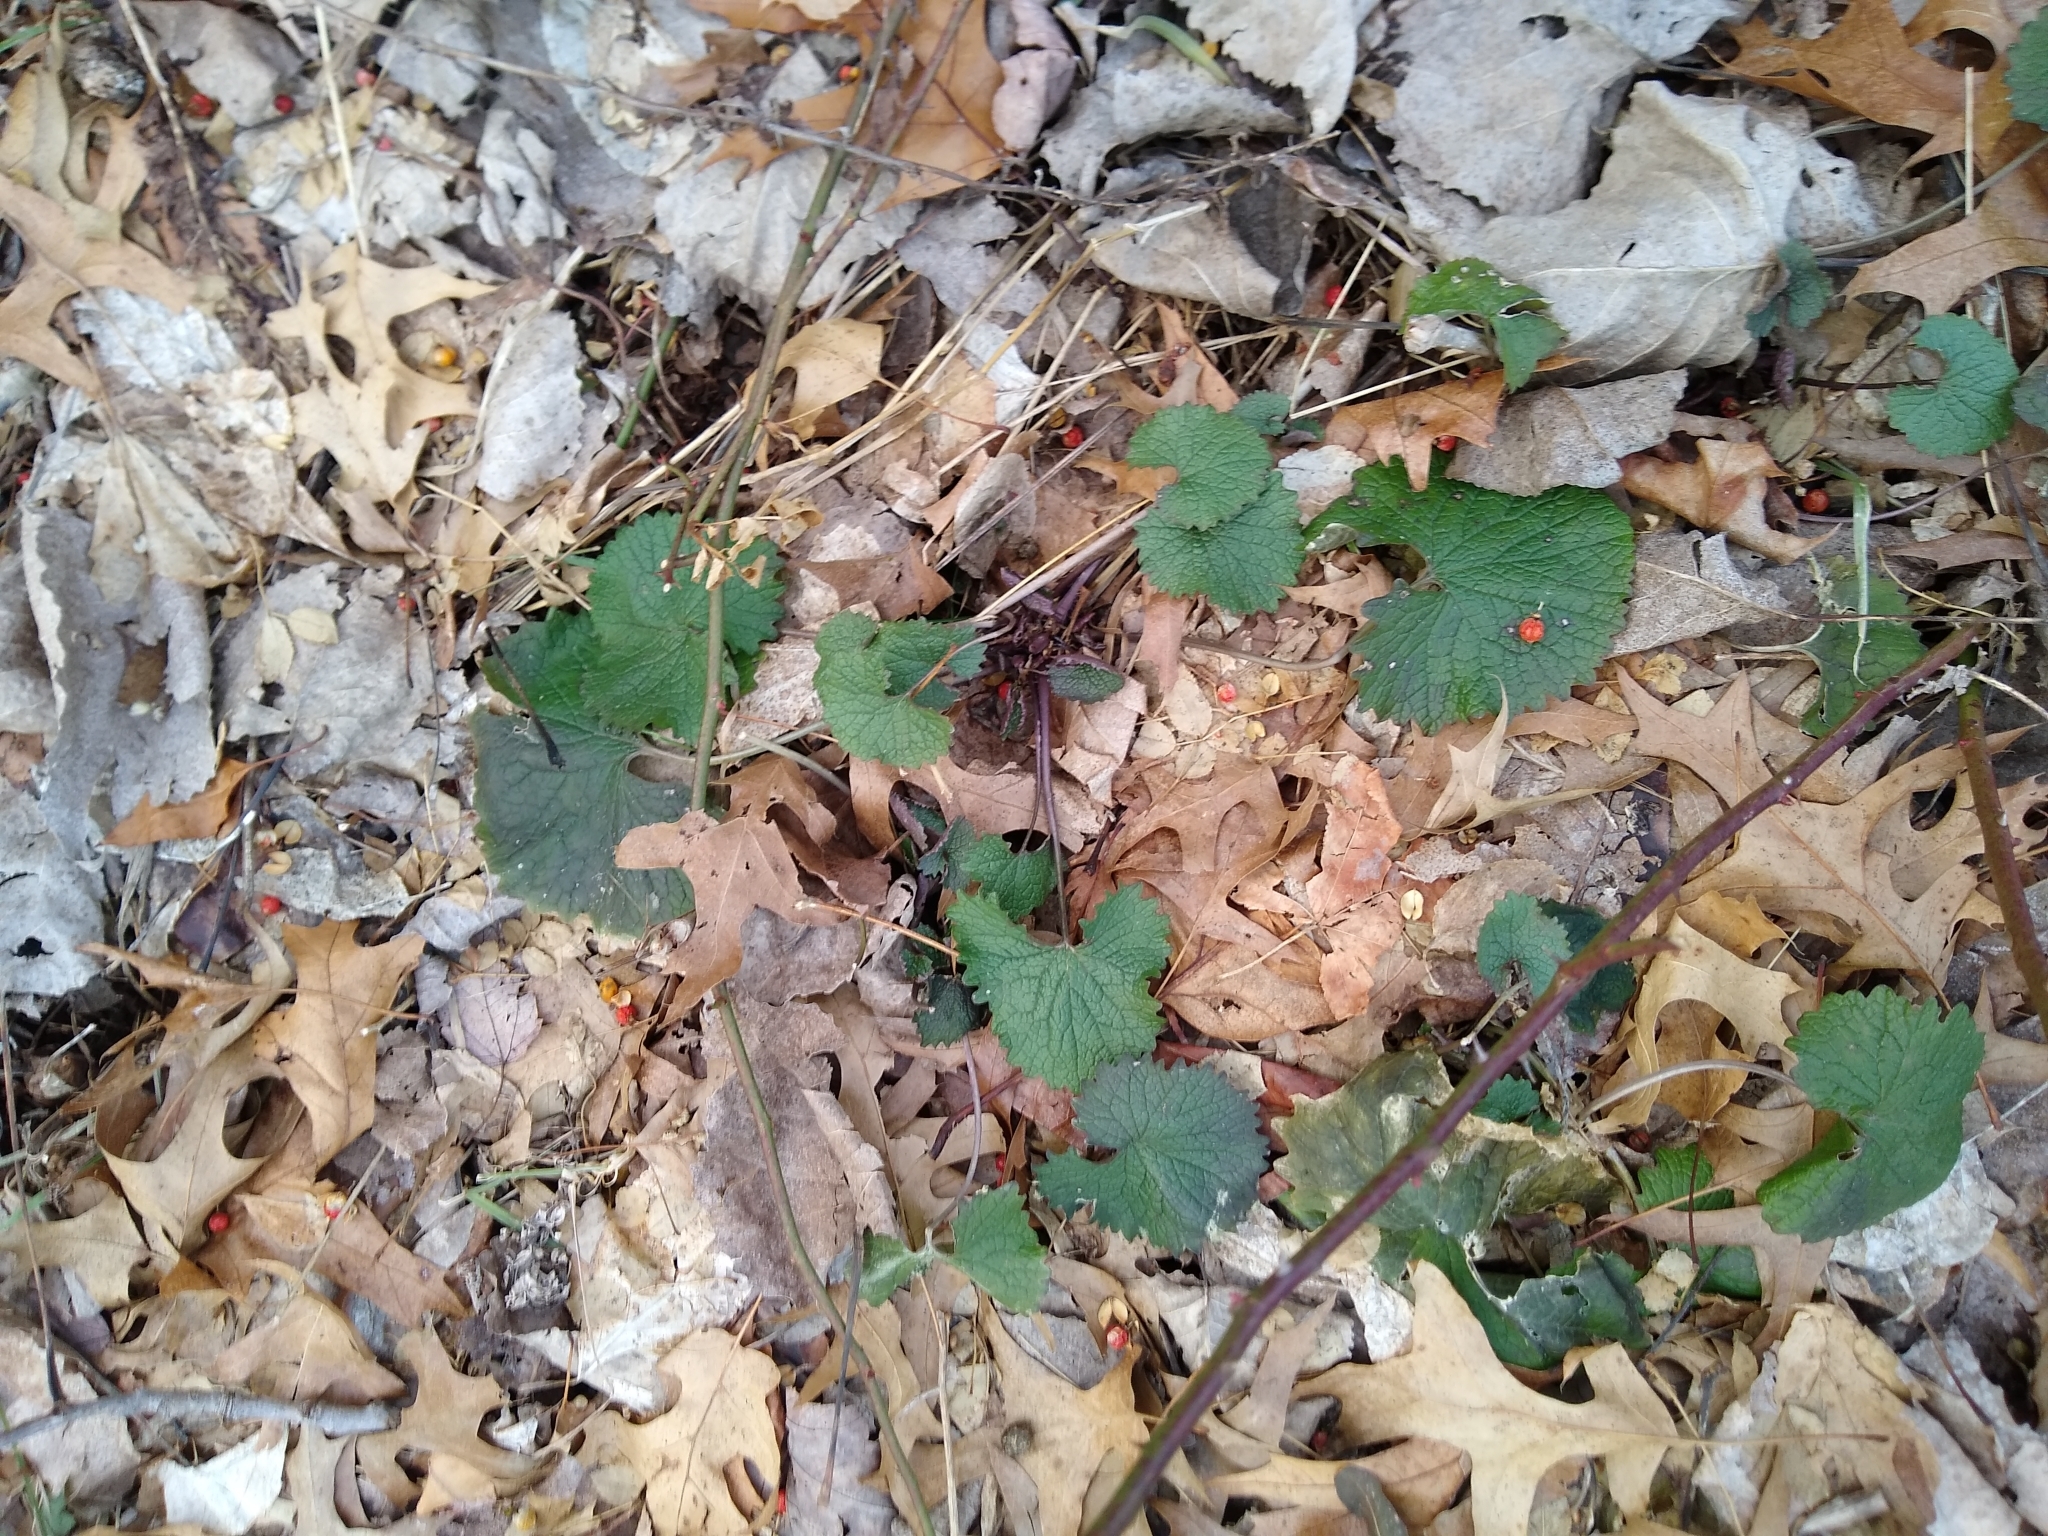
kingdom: Plantae
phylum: Tracheophyta
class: Magnoliopsida
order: Brassicales
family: Brassicaceae
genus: Alliaria
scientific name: Alliaria petiolata
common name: Garlic mustard
